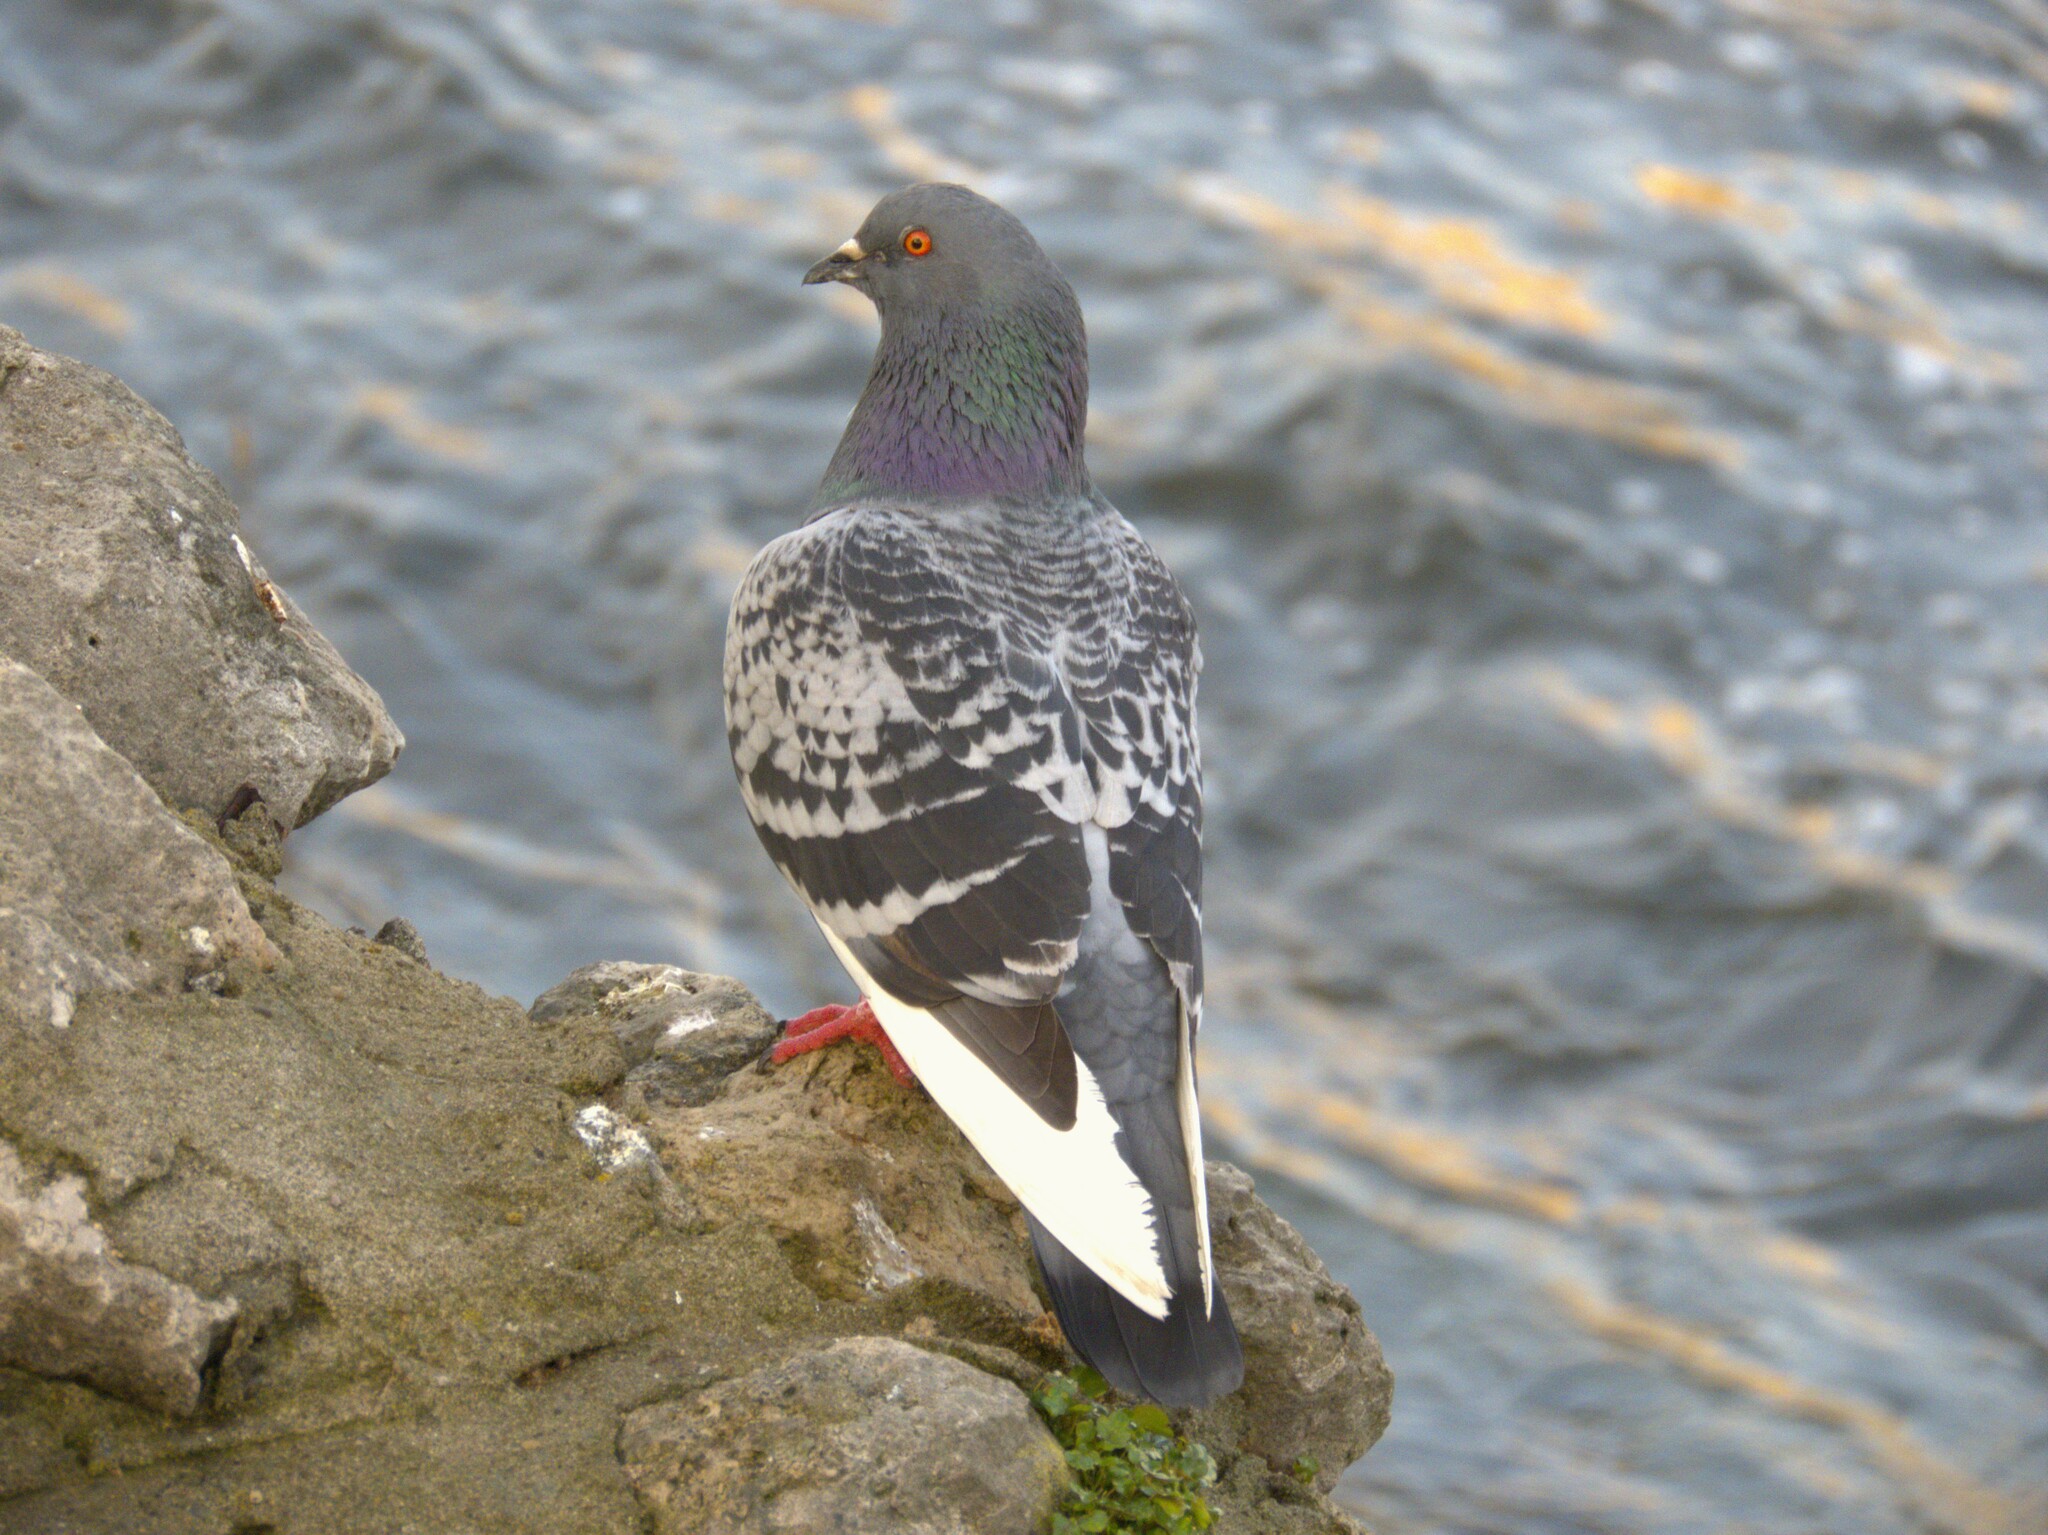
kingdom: Animalia
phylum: Chordata
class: Aves
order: Columbiformes
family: Columbidae
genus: Columba
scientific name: Columba livia
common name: Rock pigeon
